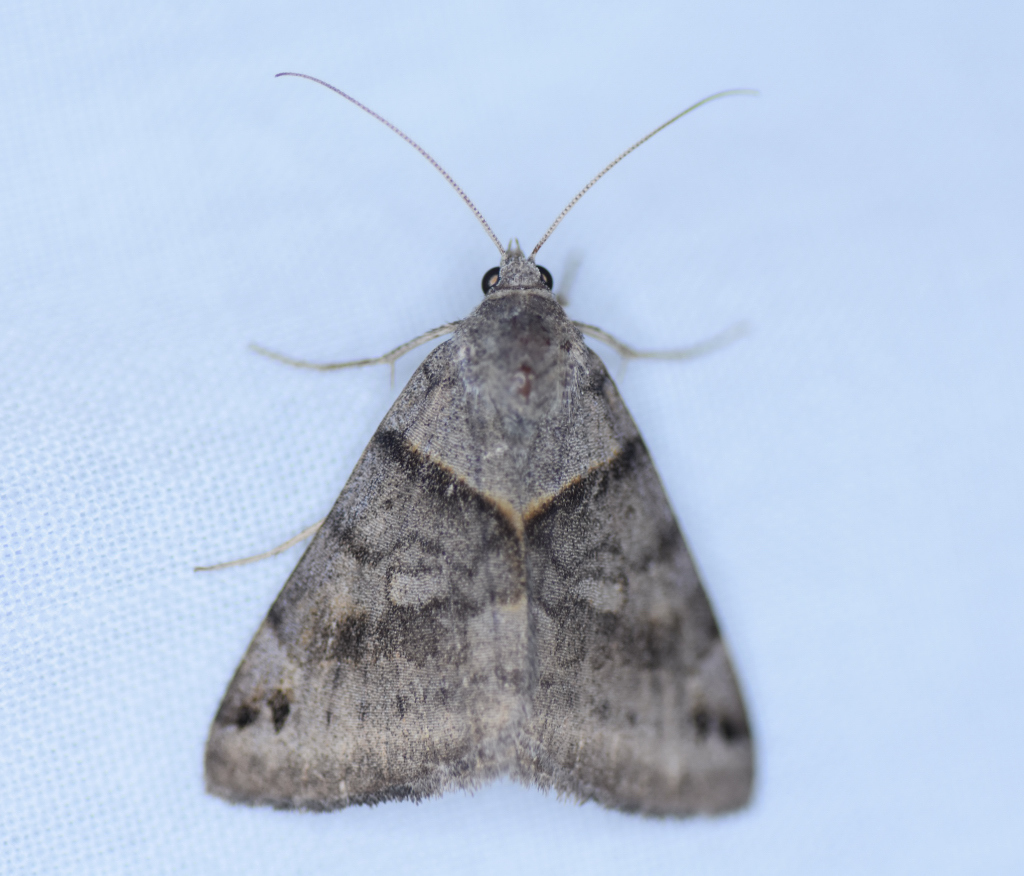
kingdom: Animalia
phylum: Arthropoda
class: Insecta
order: Lepidoptera
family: Erebidae
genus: Caenurgina
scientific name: Caenurgina crassiuscula
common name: Double-barred
